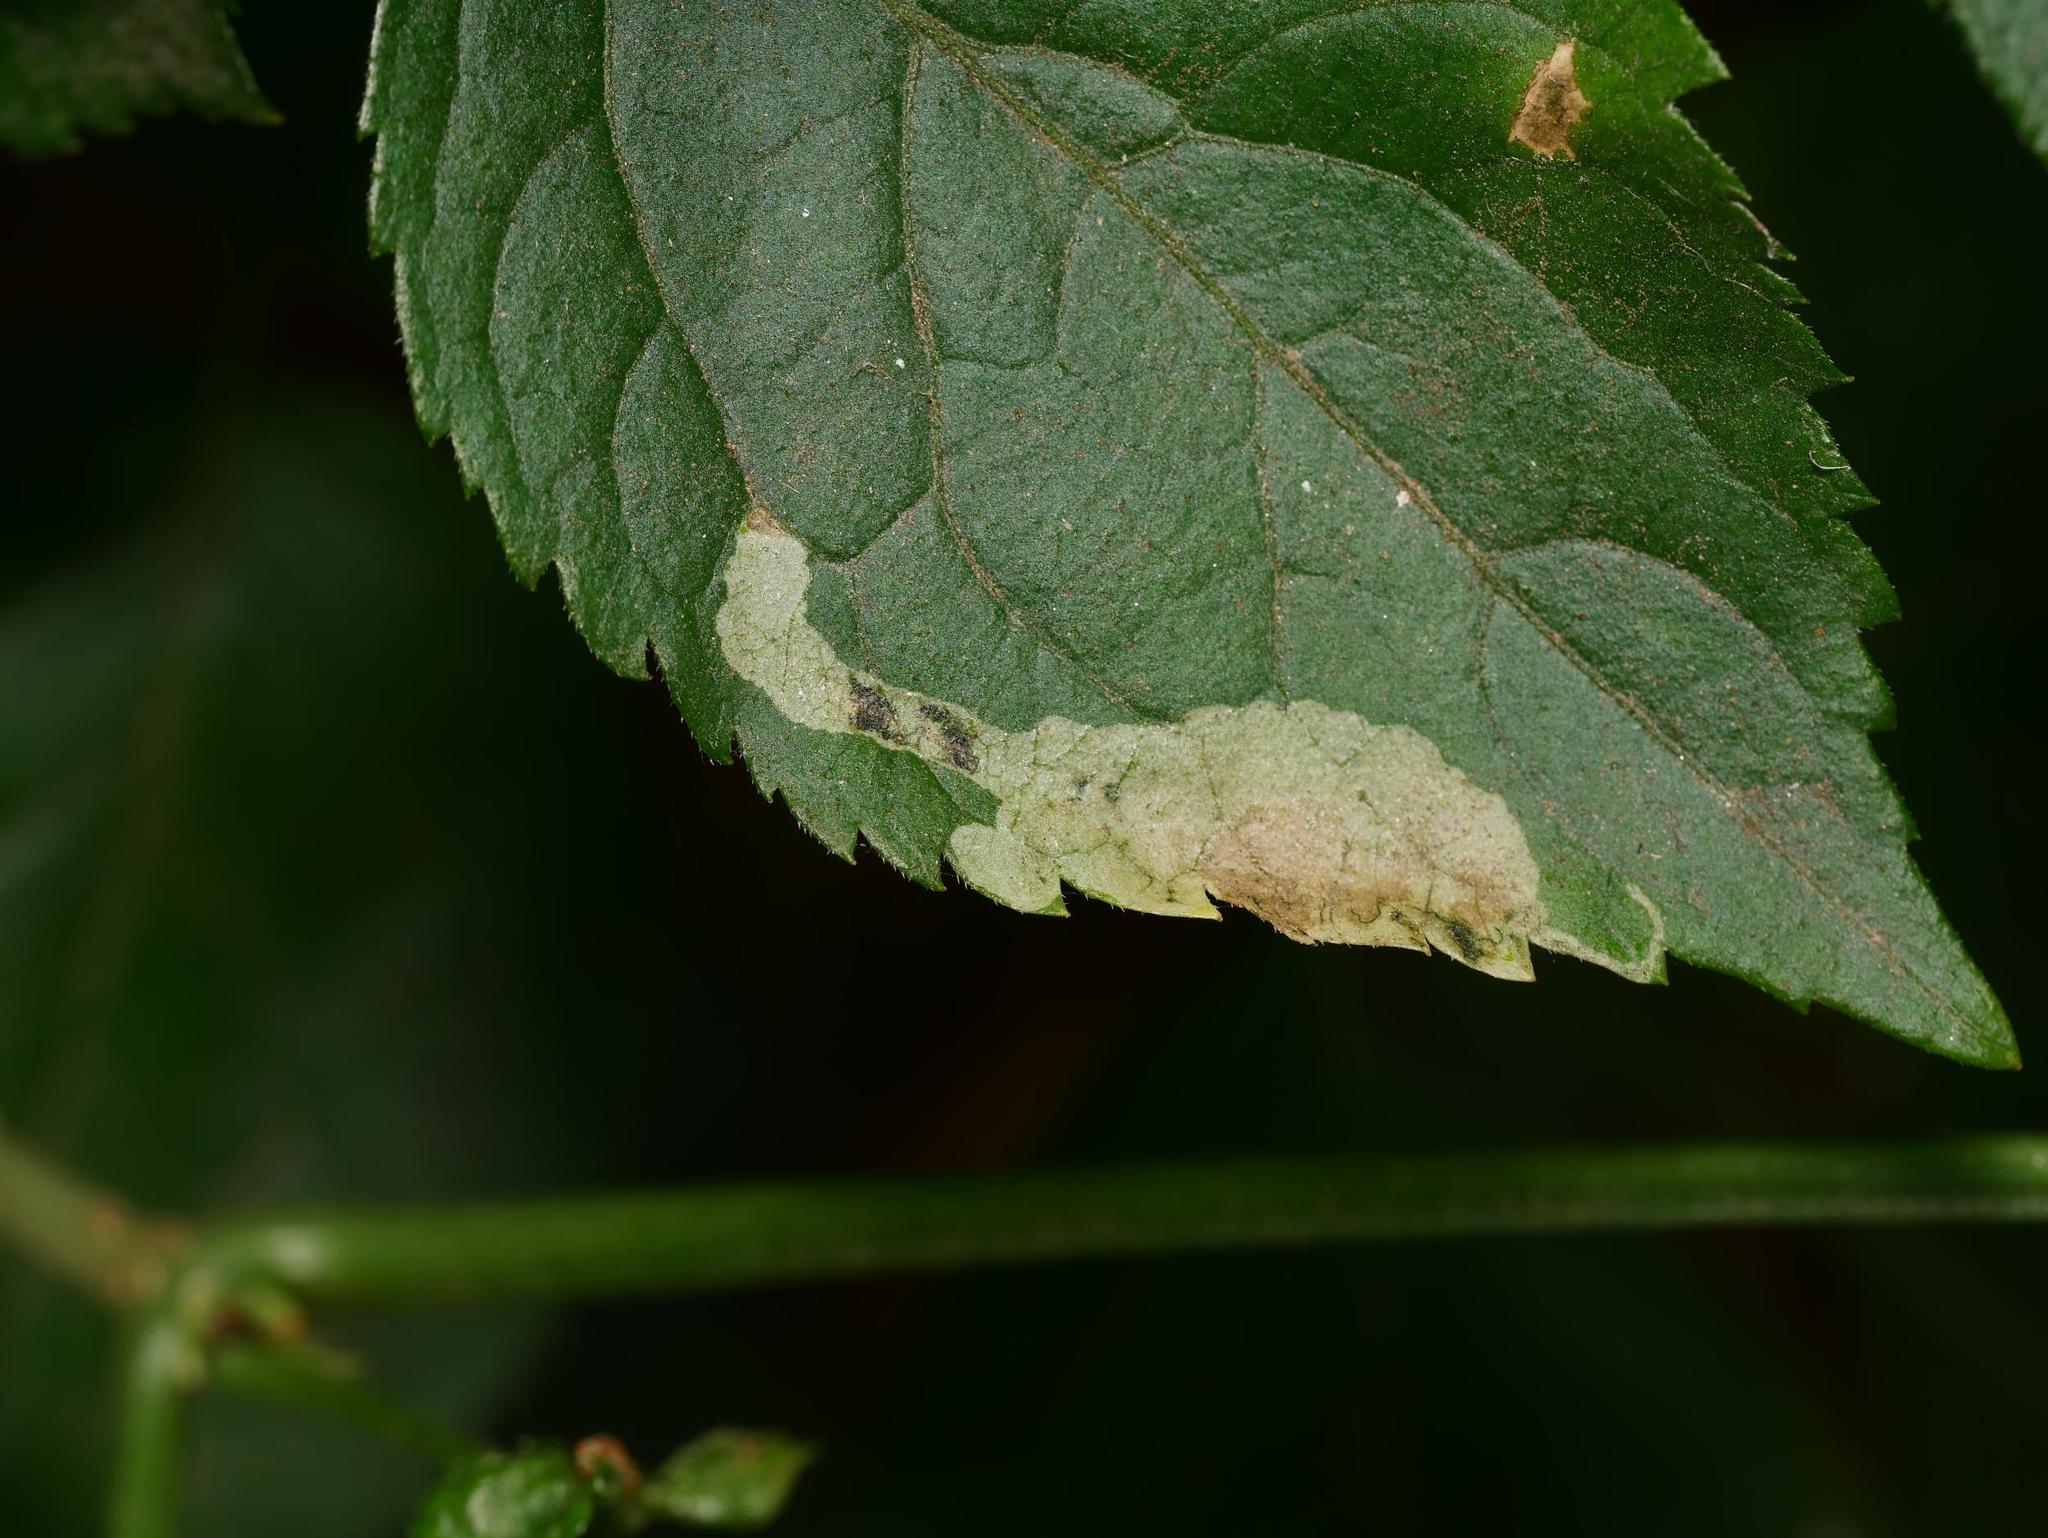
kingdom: Animalia
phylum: Arthropoda
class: Insecta
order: Diptera
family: Agromyzidae
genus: Liriomyza
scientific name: Liriomyza amoena
